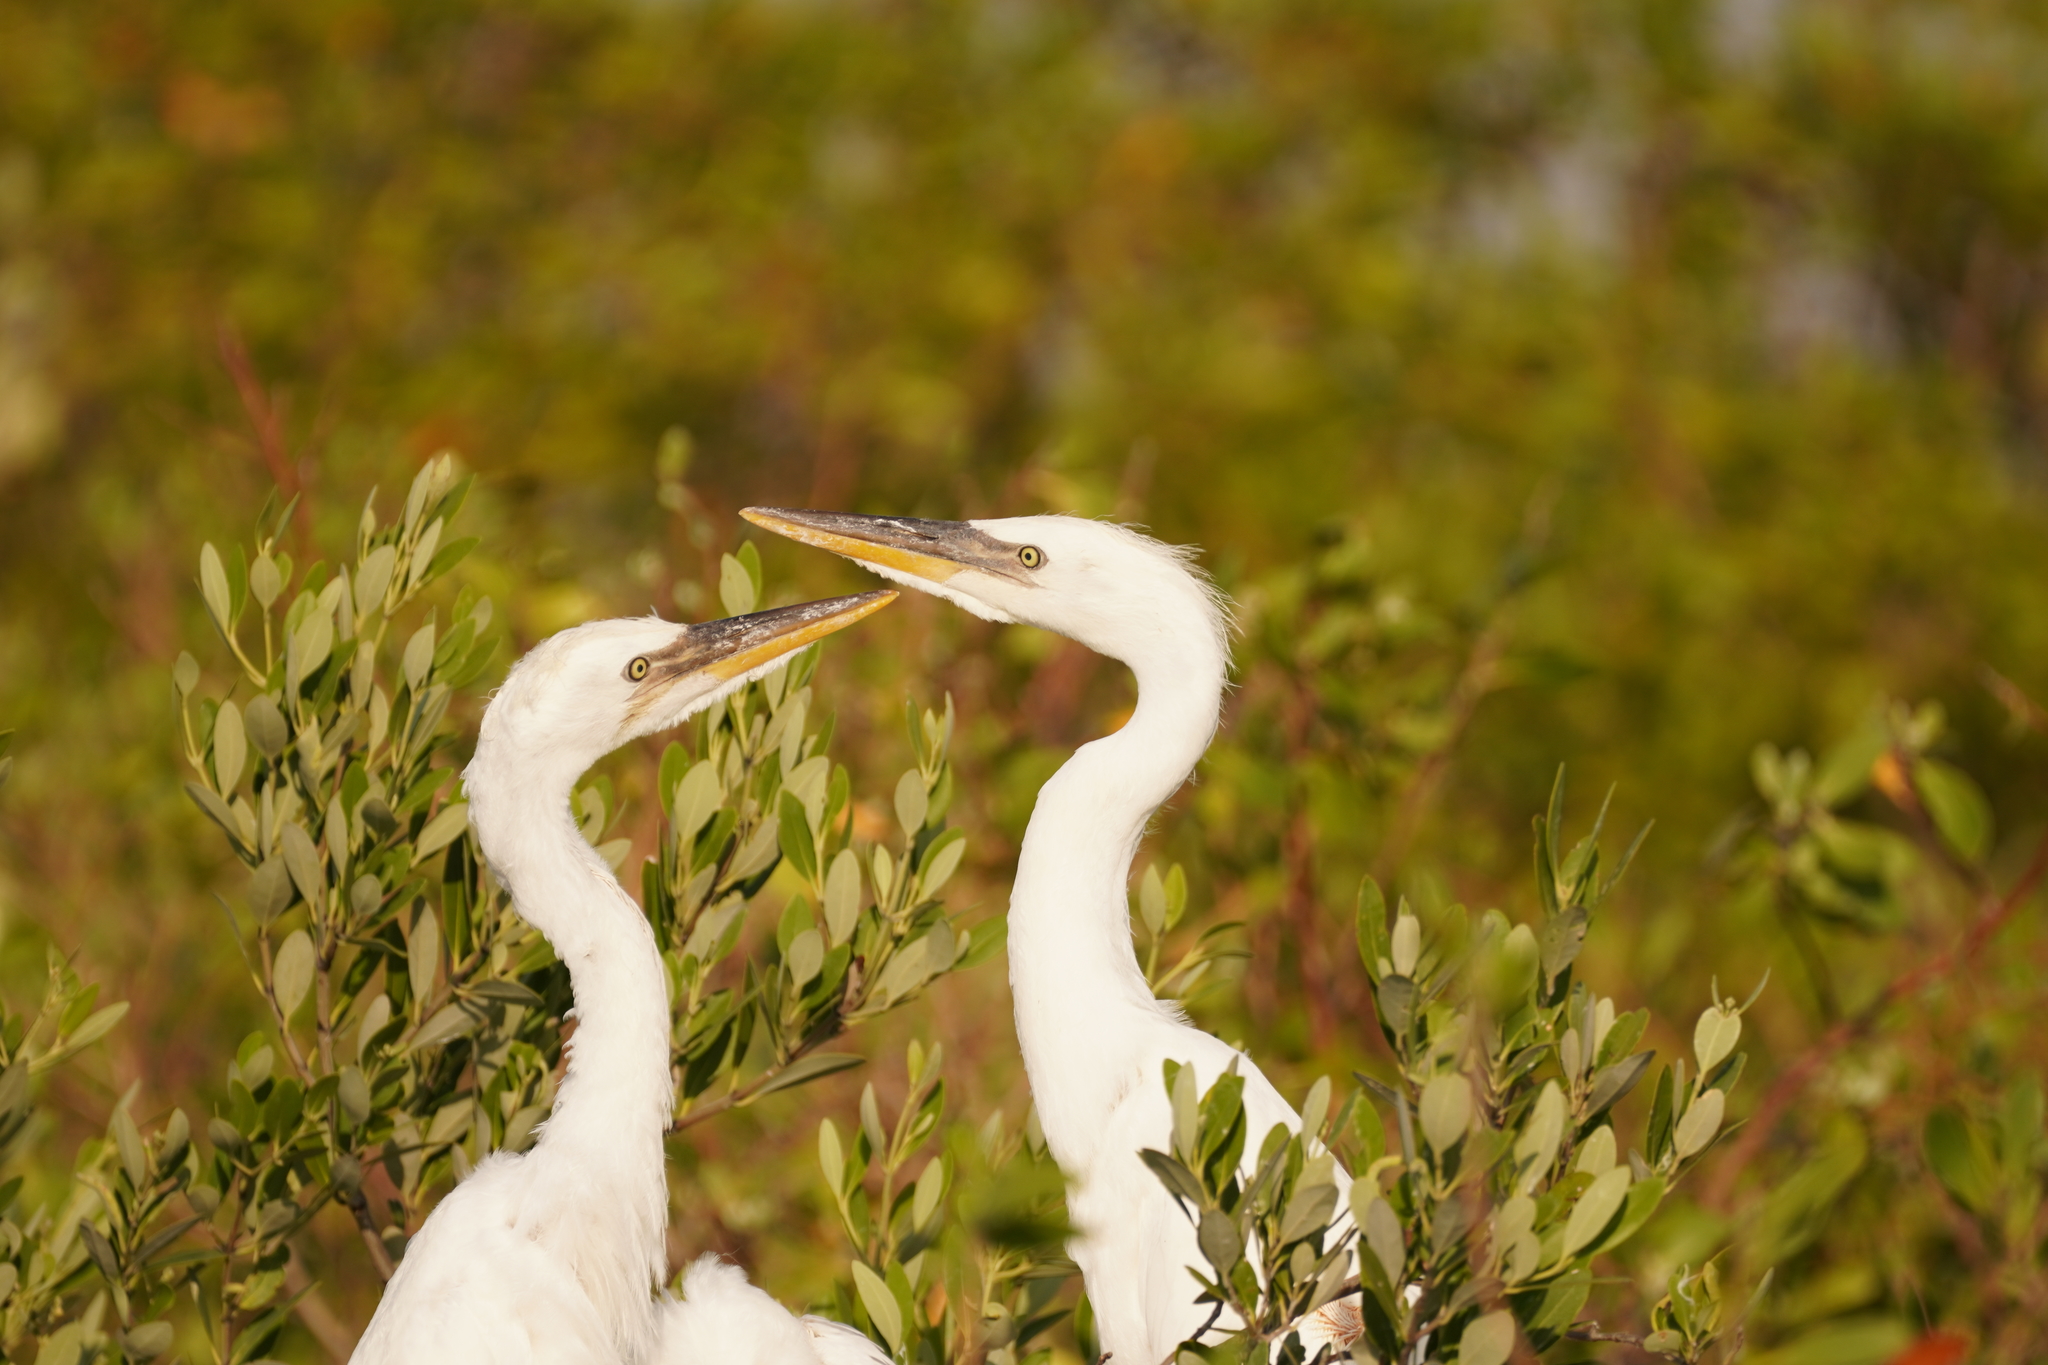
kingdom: Animalia
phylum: Chordata
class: Aves
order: Pelecaniformes
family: Ardeidae
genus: Ardea
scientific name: Ardea herodias
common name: Great blue heron
